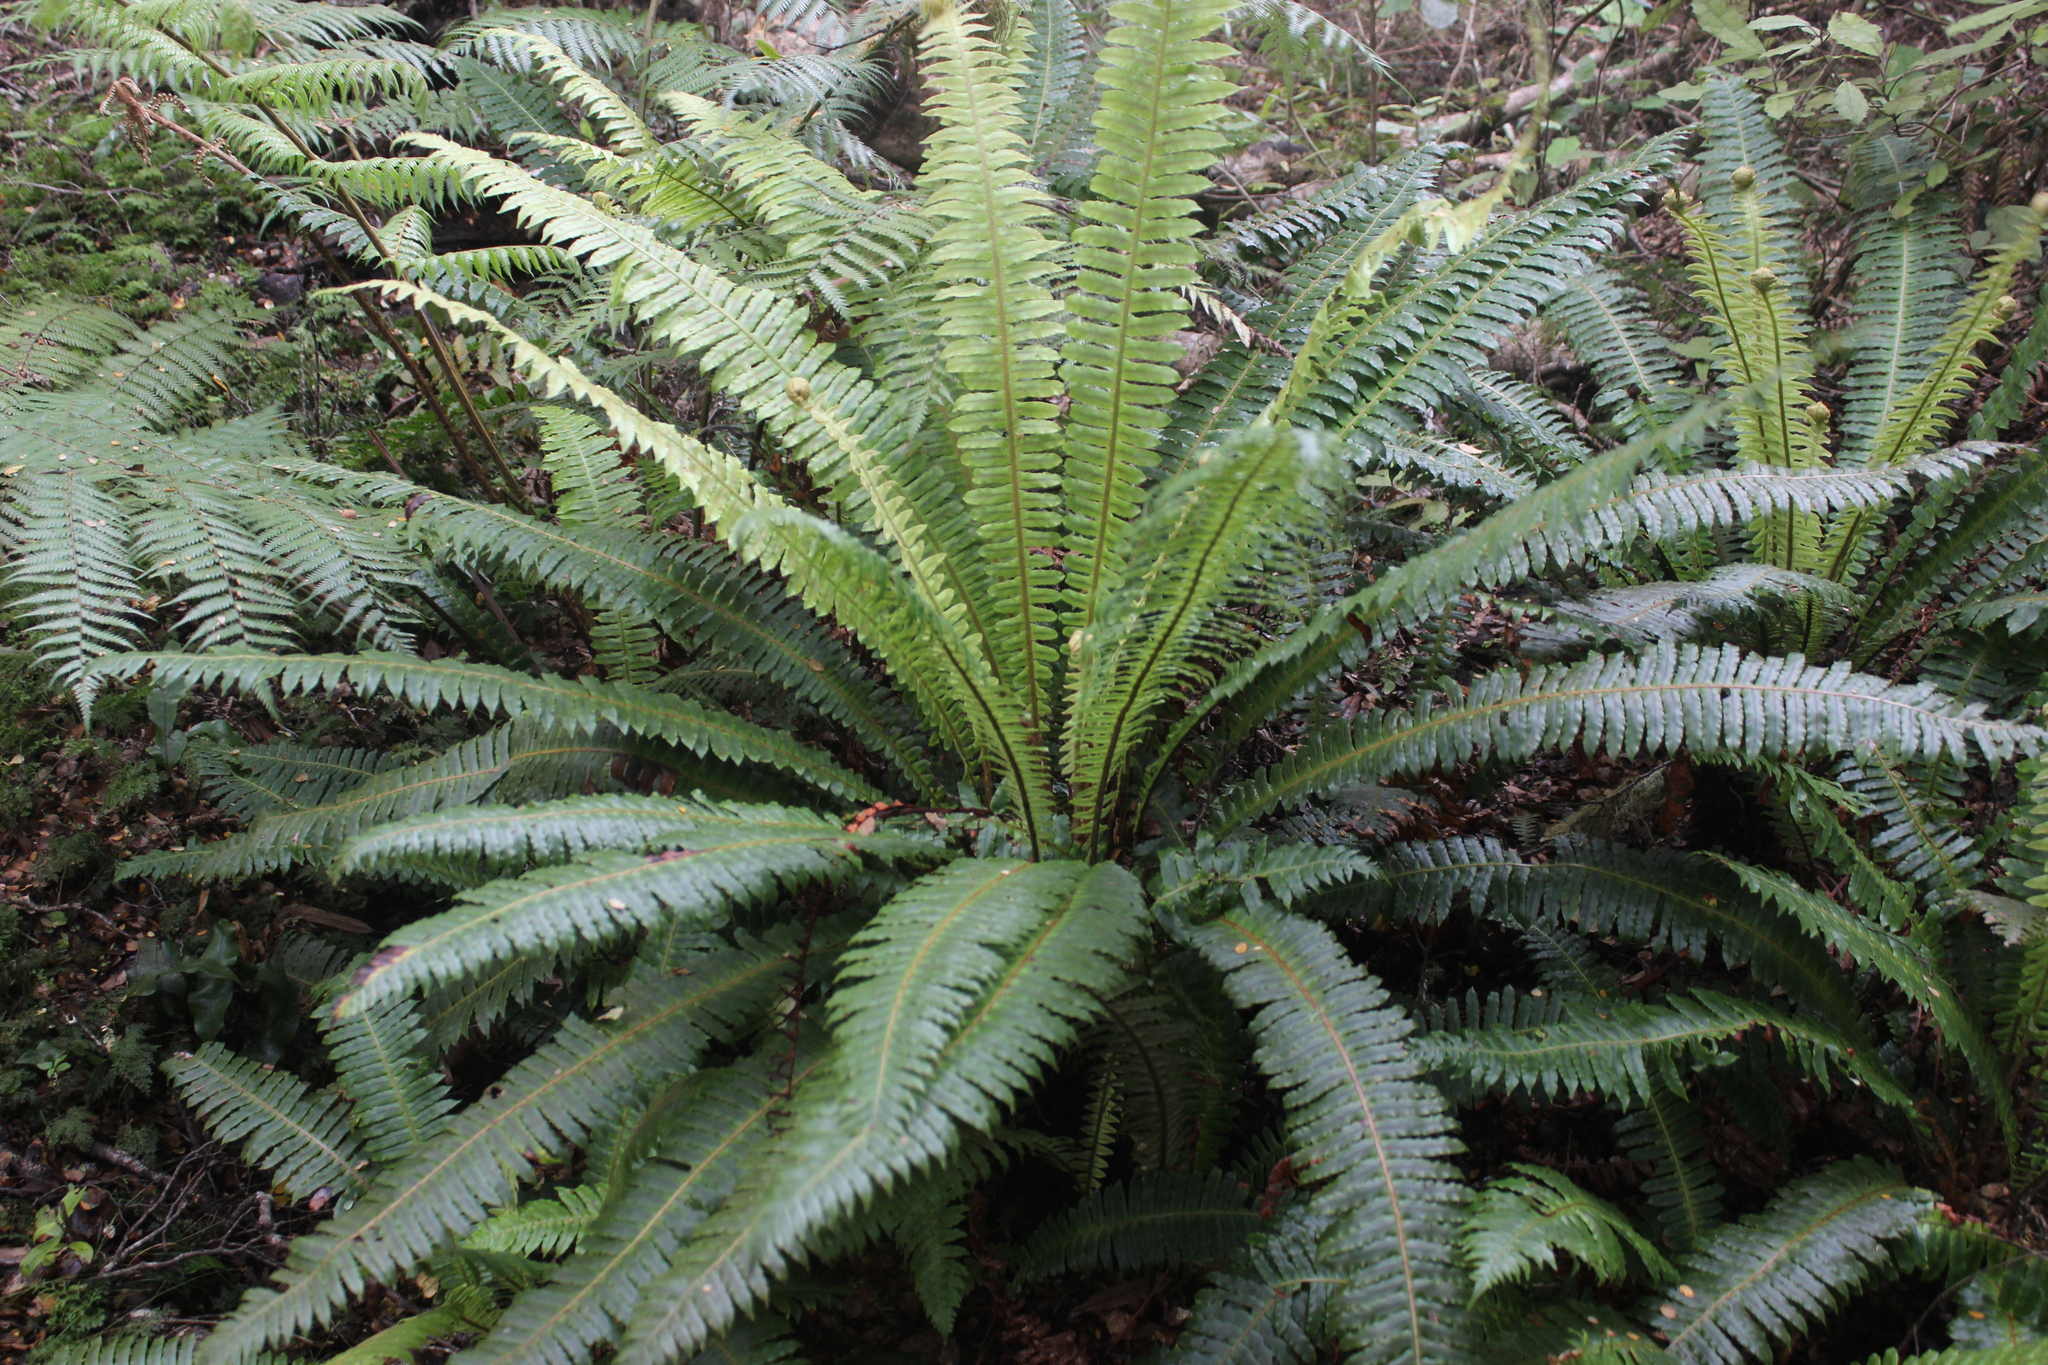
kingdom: Plantae
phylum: Tracheophyta
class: Polypodiopsida
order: Polypodiales
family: Blechnaceae
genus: Lomaria
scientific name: Lomaria discolor
